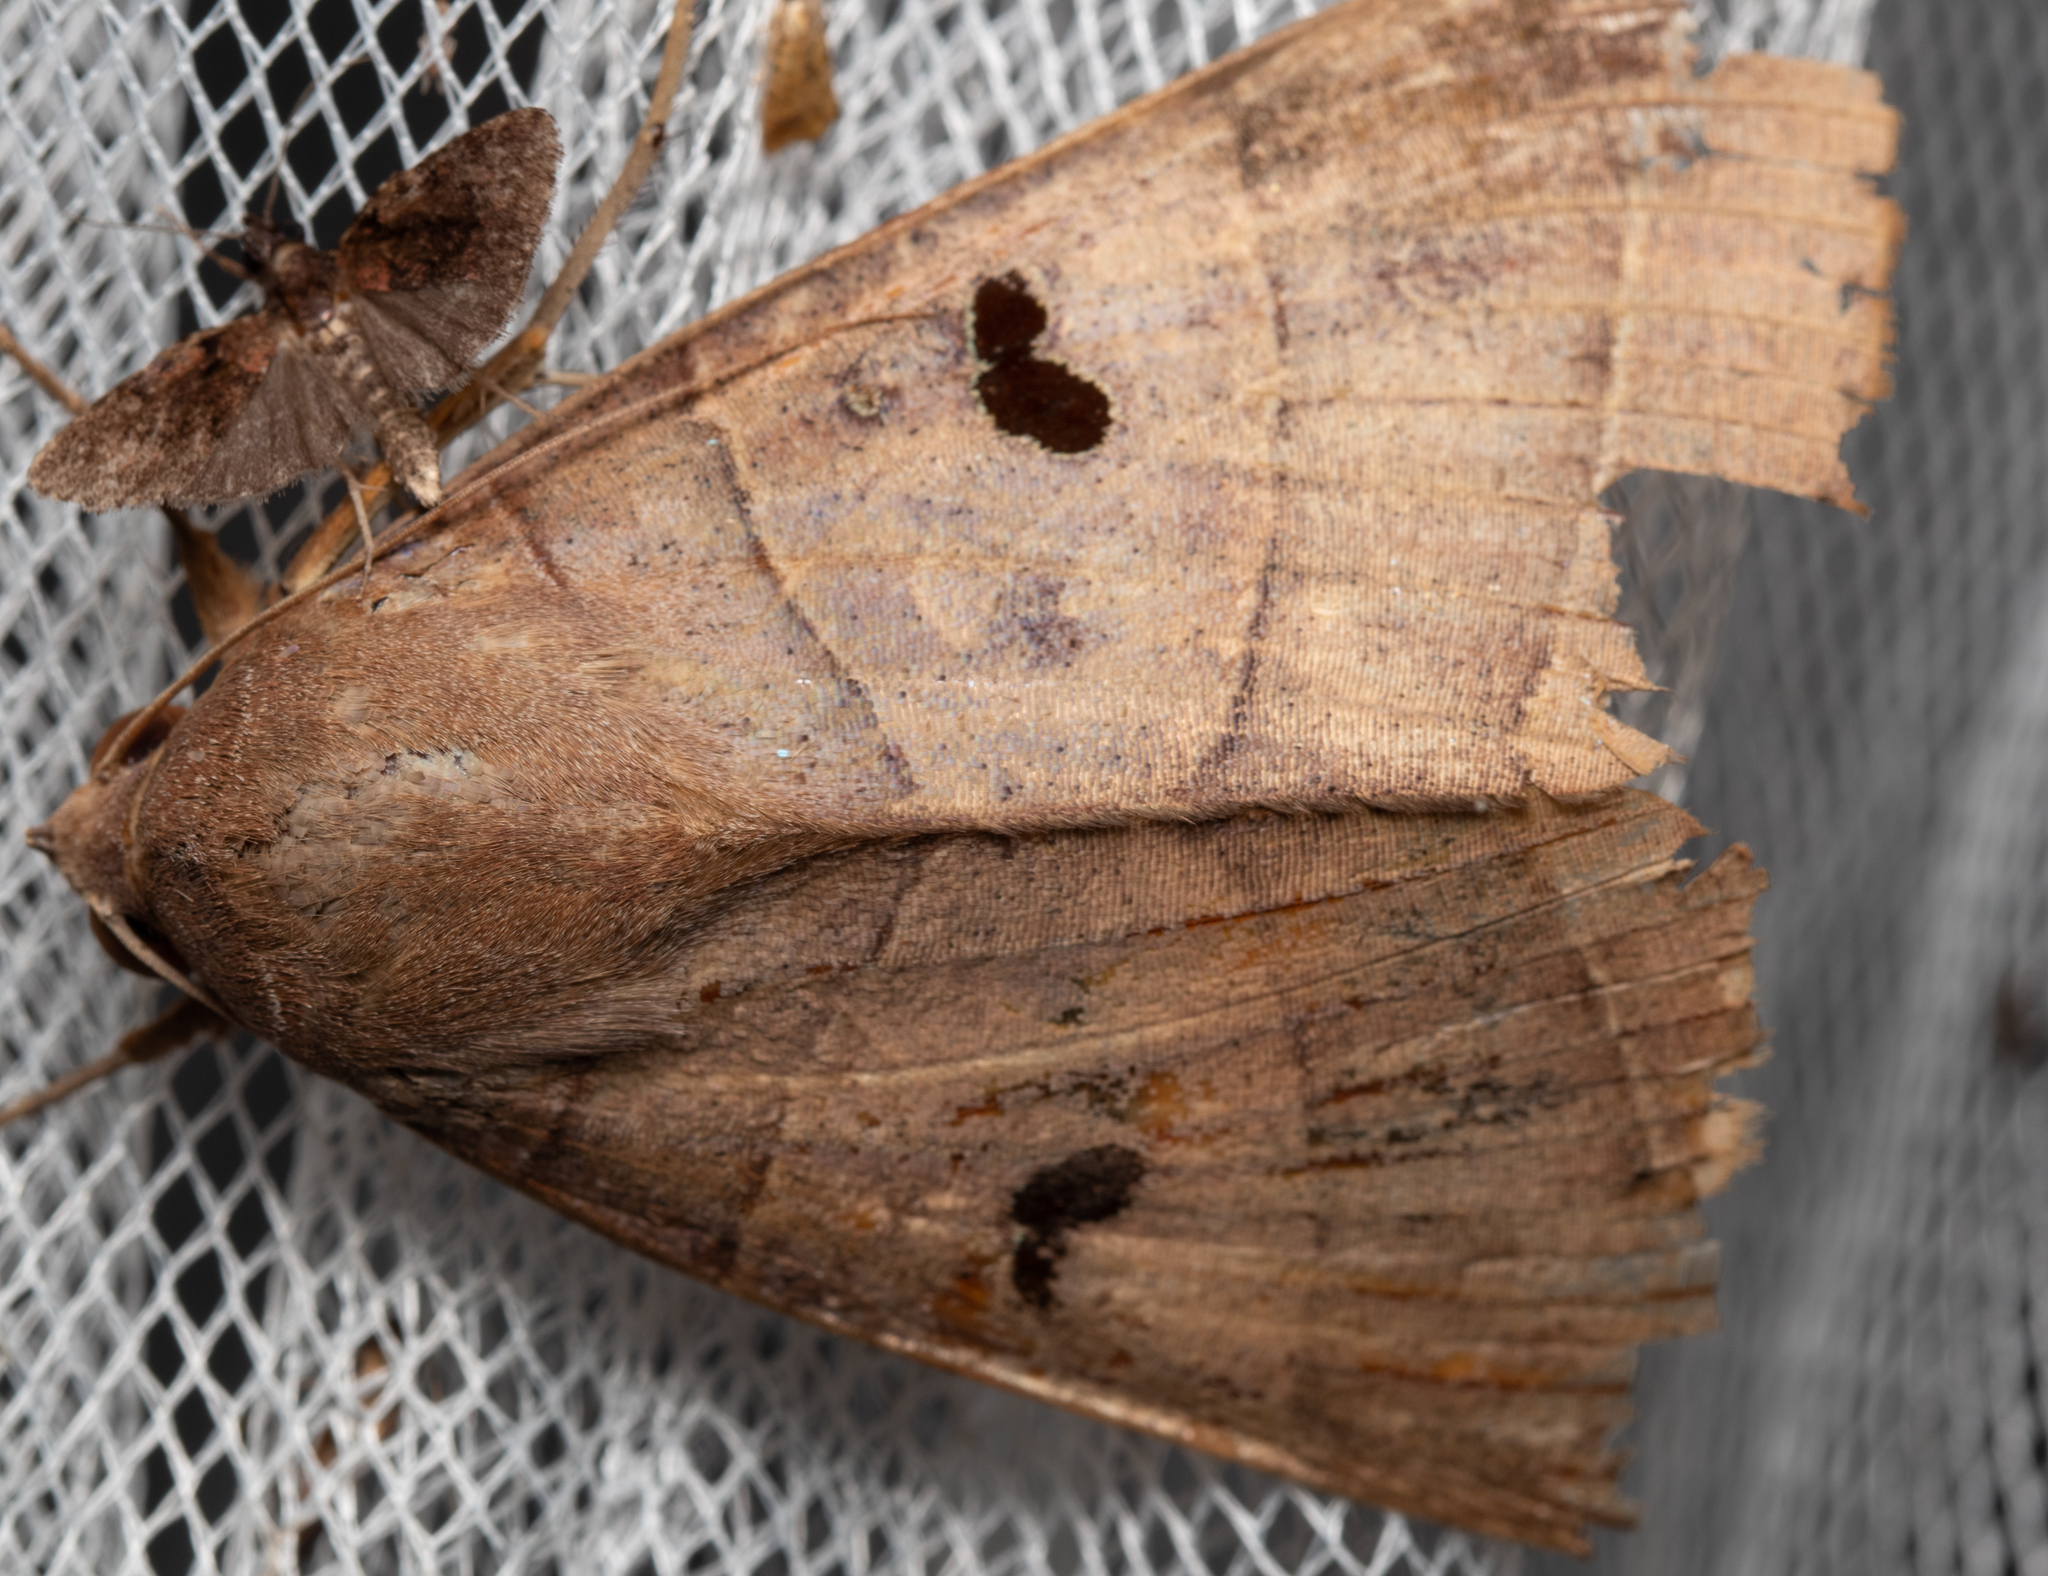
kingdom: Animalia
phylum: Arthropoda
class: Insecta
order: Lepidoptera
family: Erebidae
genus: Thyas
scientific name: Thyas coronata
